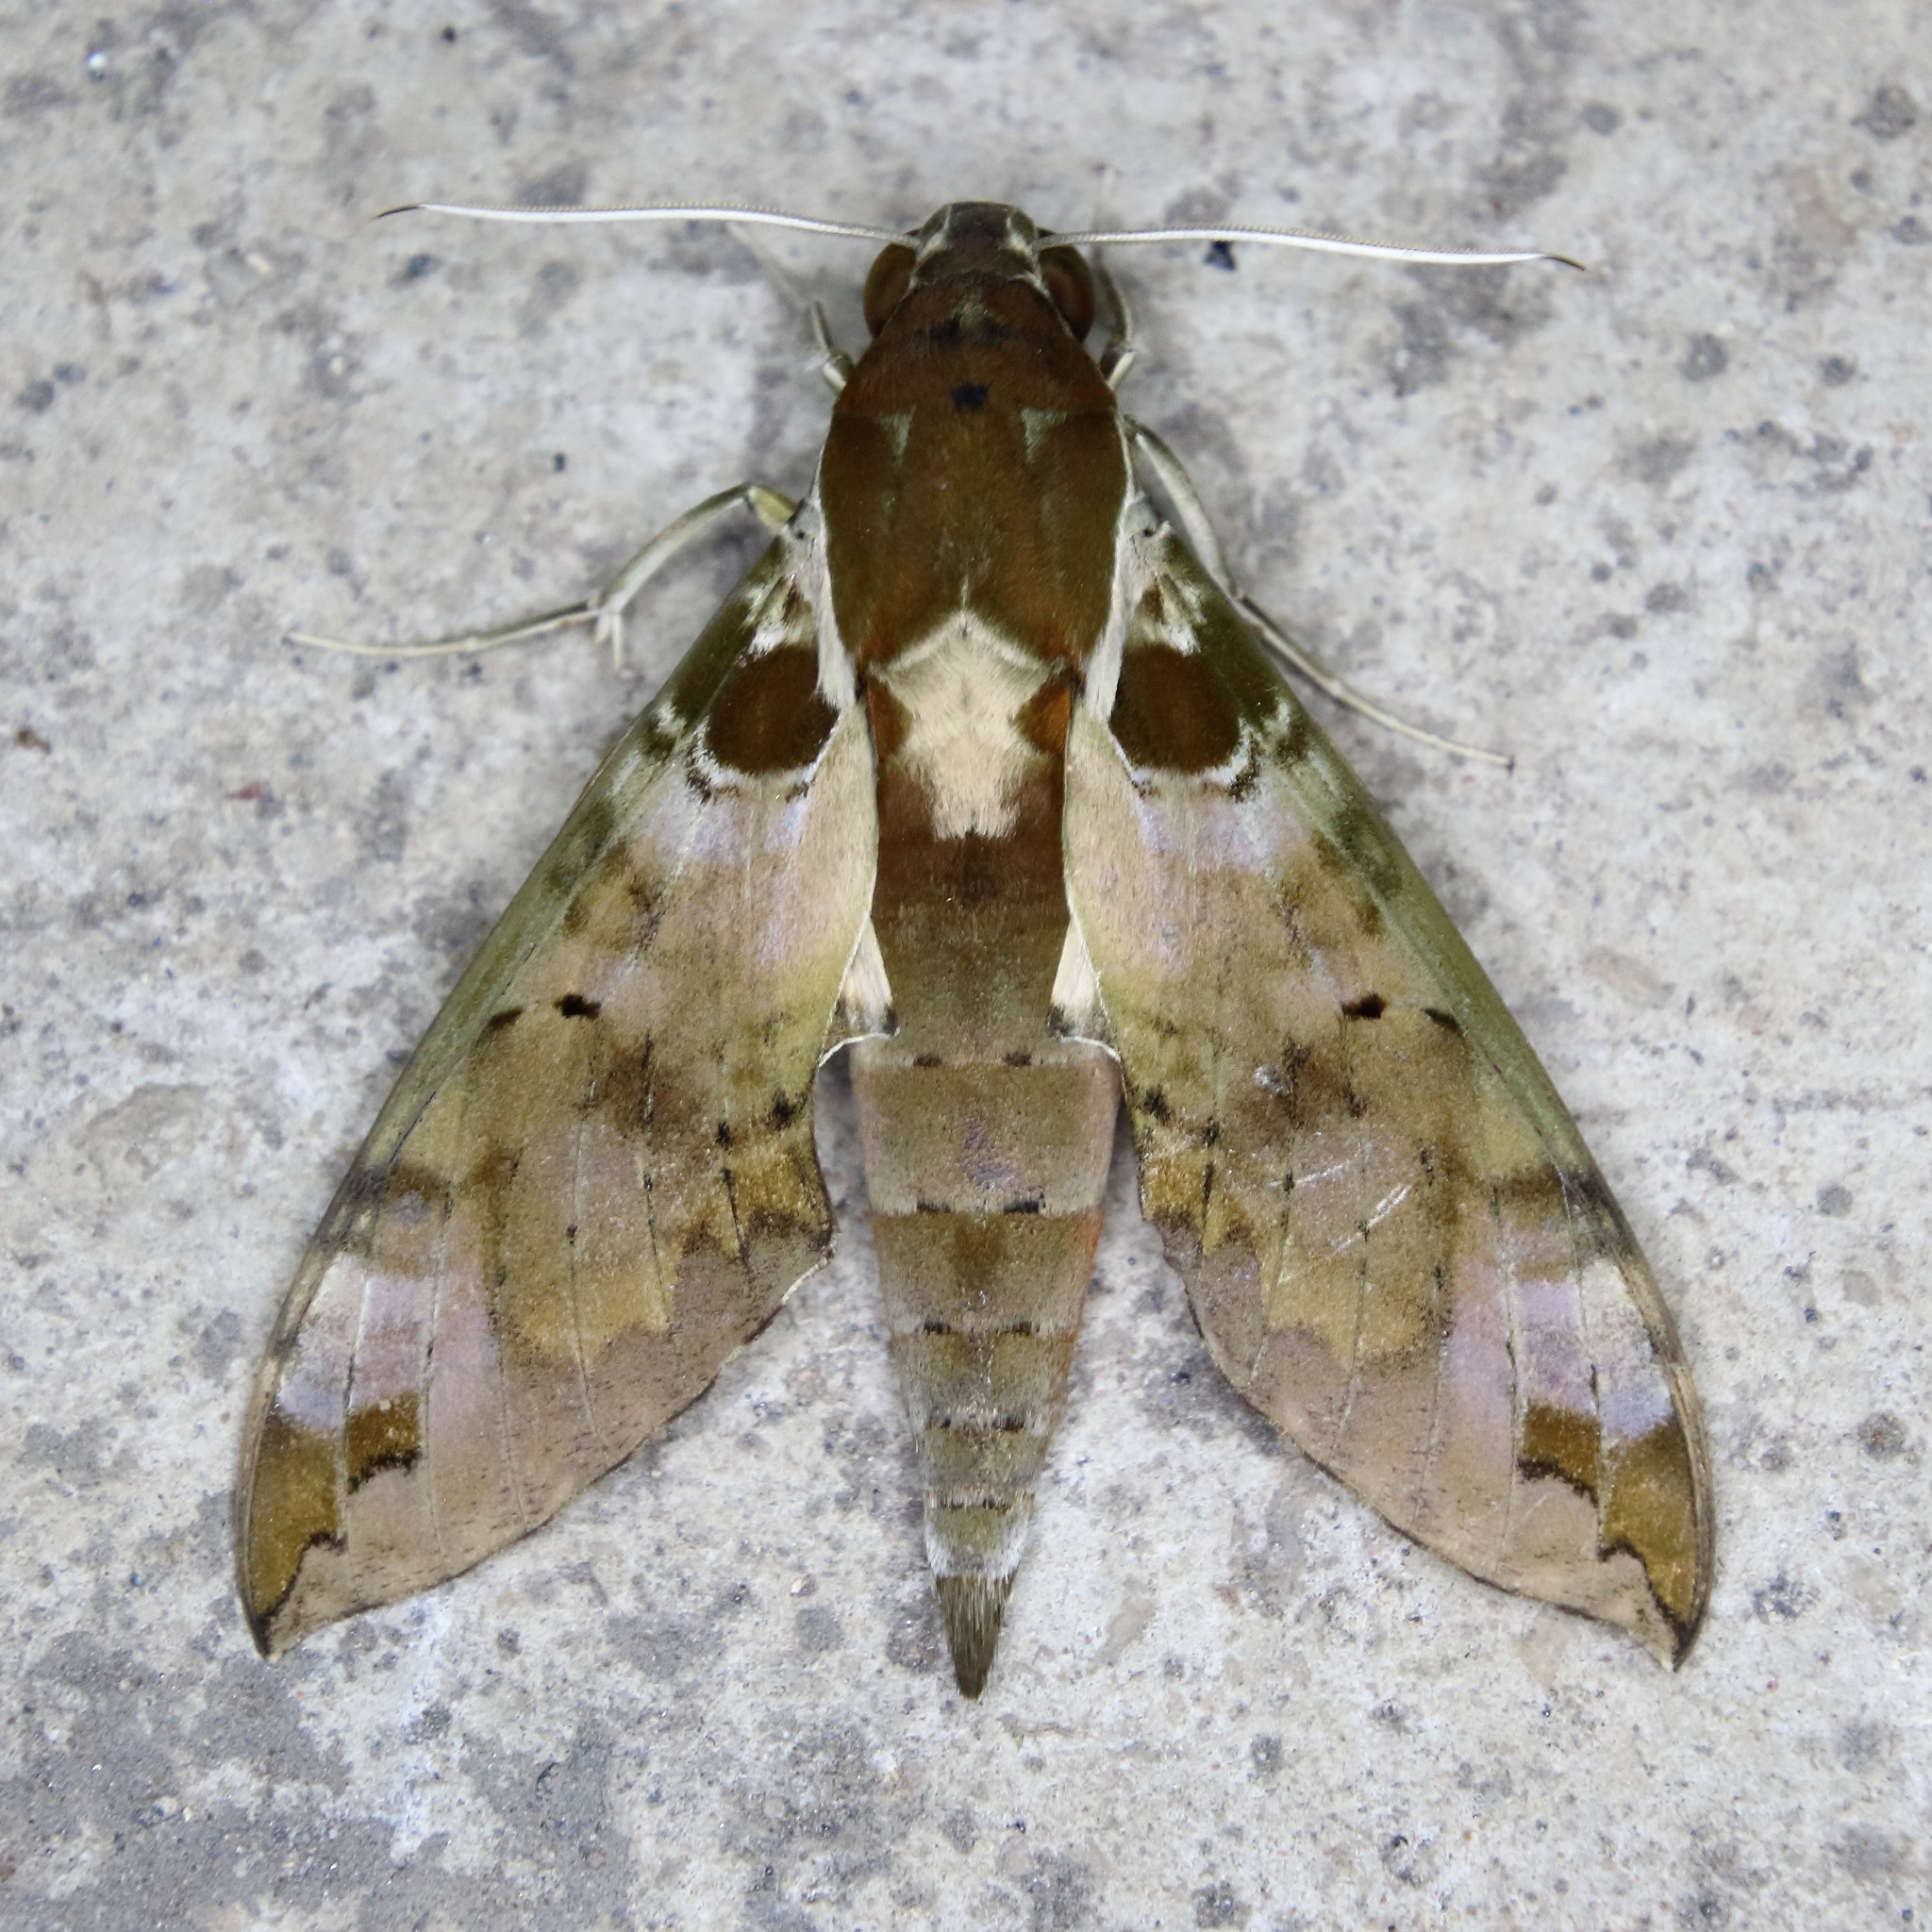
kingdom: Animalia
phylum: Arthropoda
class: Insecta
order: Lepidoptera
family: Sphingidae
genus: Cechenena
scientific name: Cechenena helops
